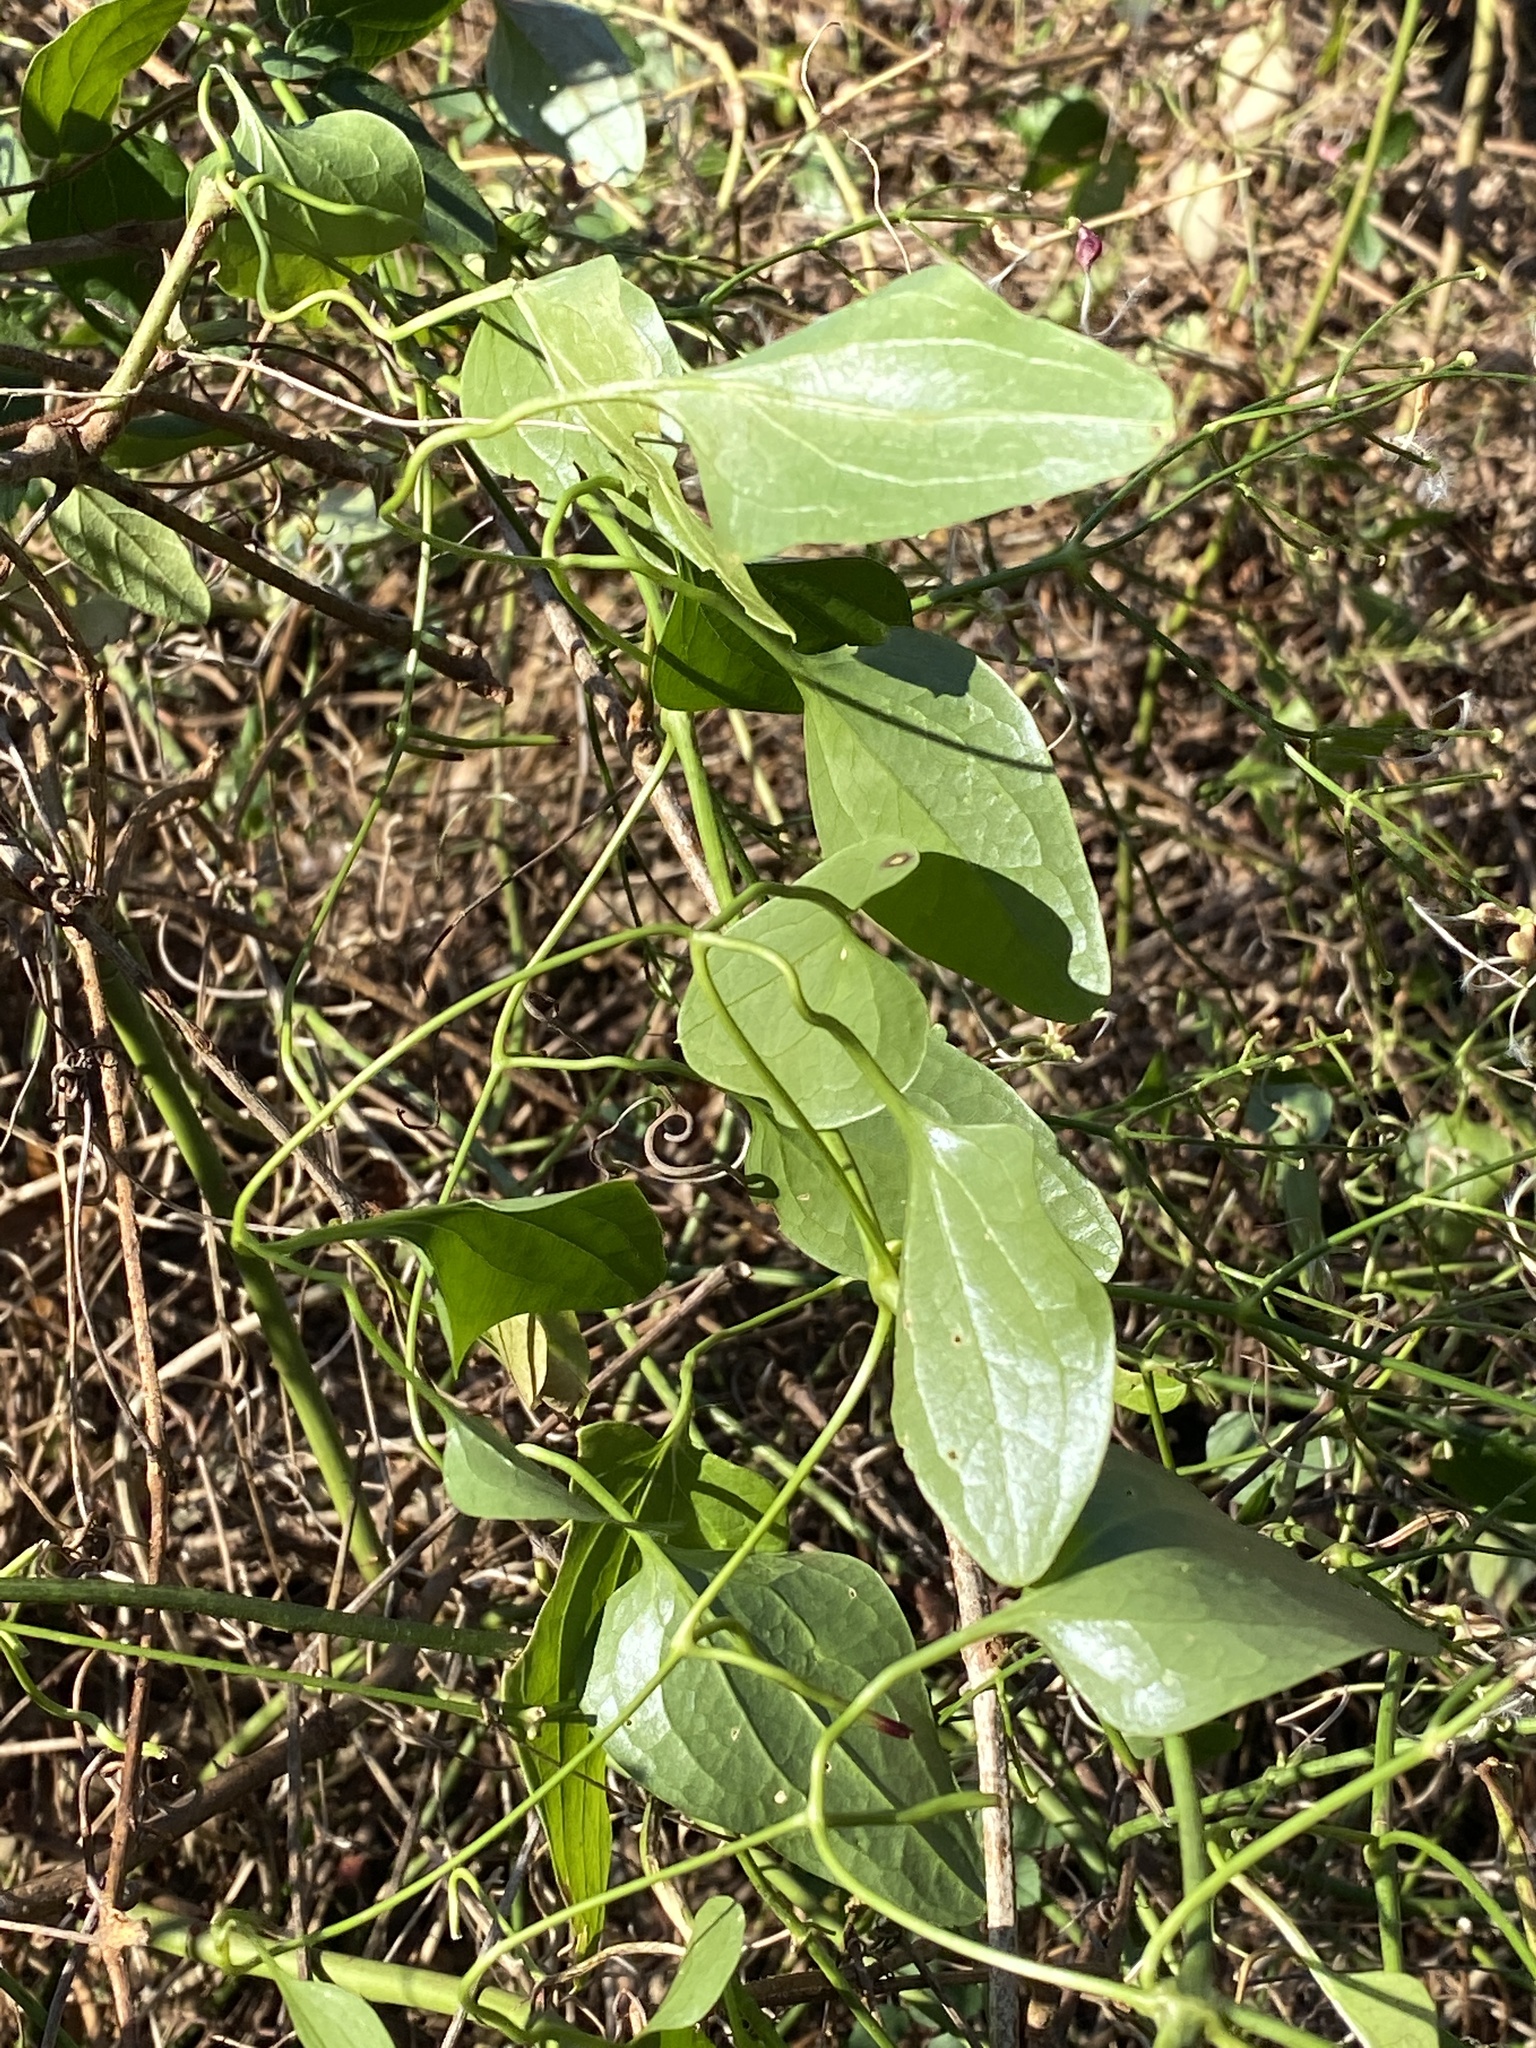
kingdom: Plantae
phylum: Tracheophyta
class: Magnoliopsida
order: Ranunculales
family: Ranunculaceae
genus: Clematis
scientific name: Clematis terniflora
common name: Sweet autumn clematis
